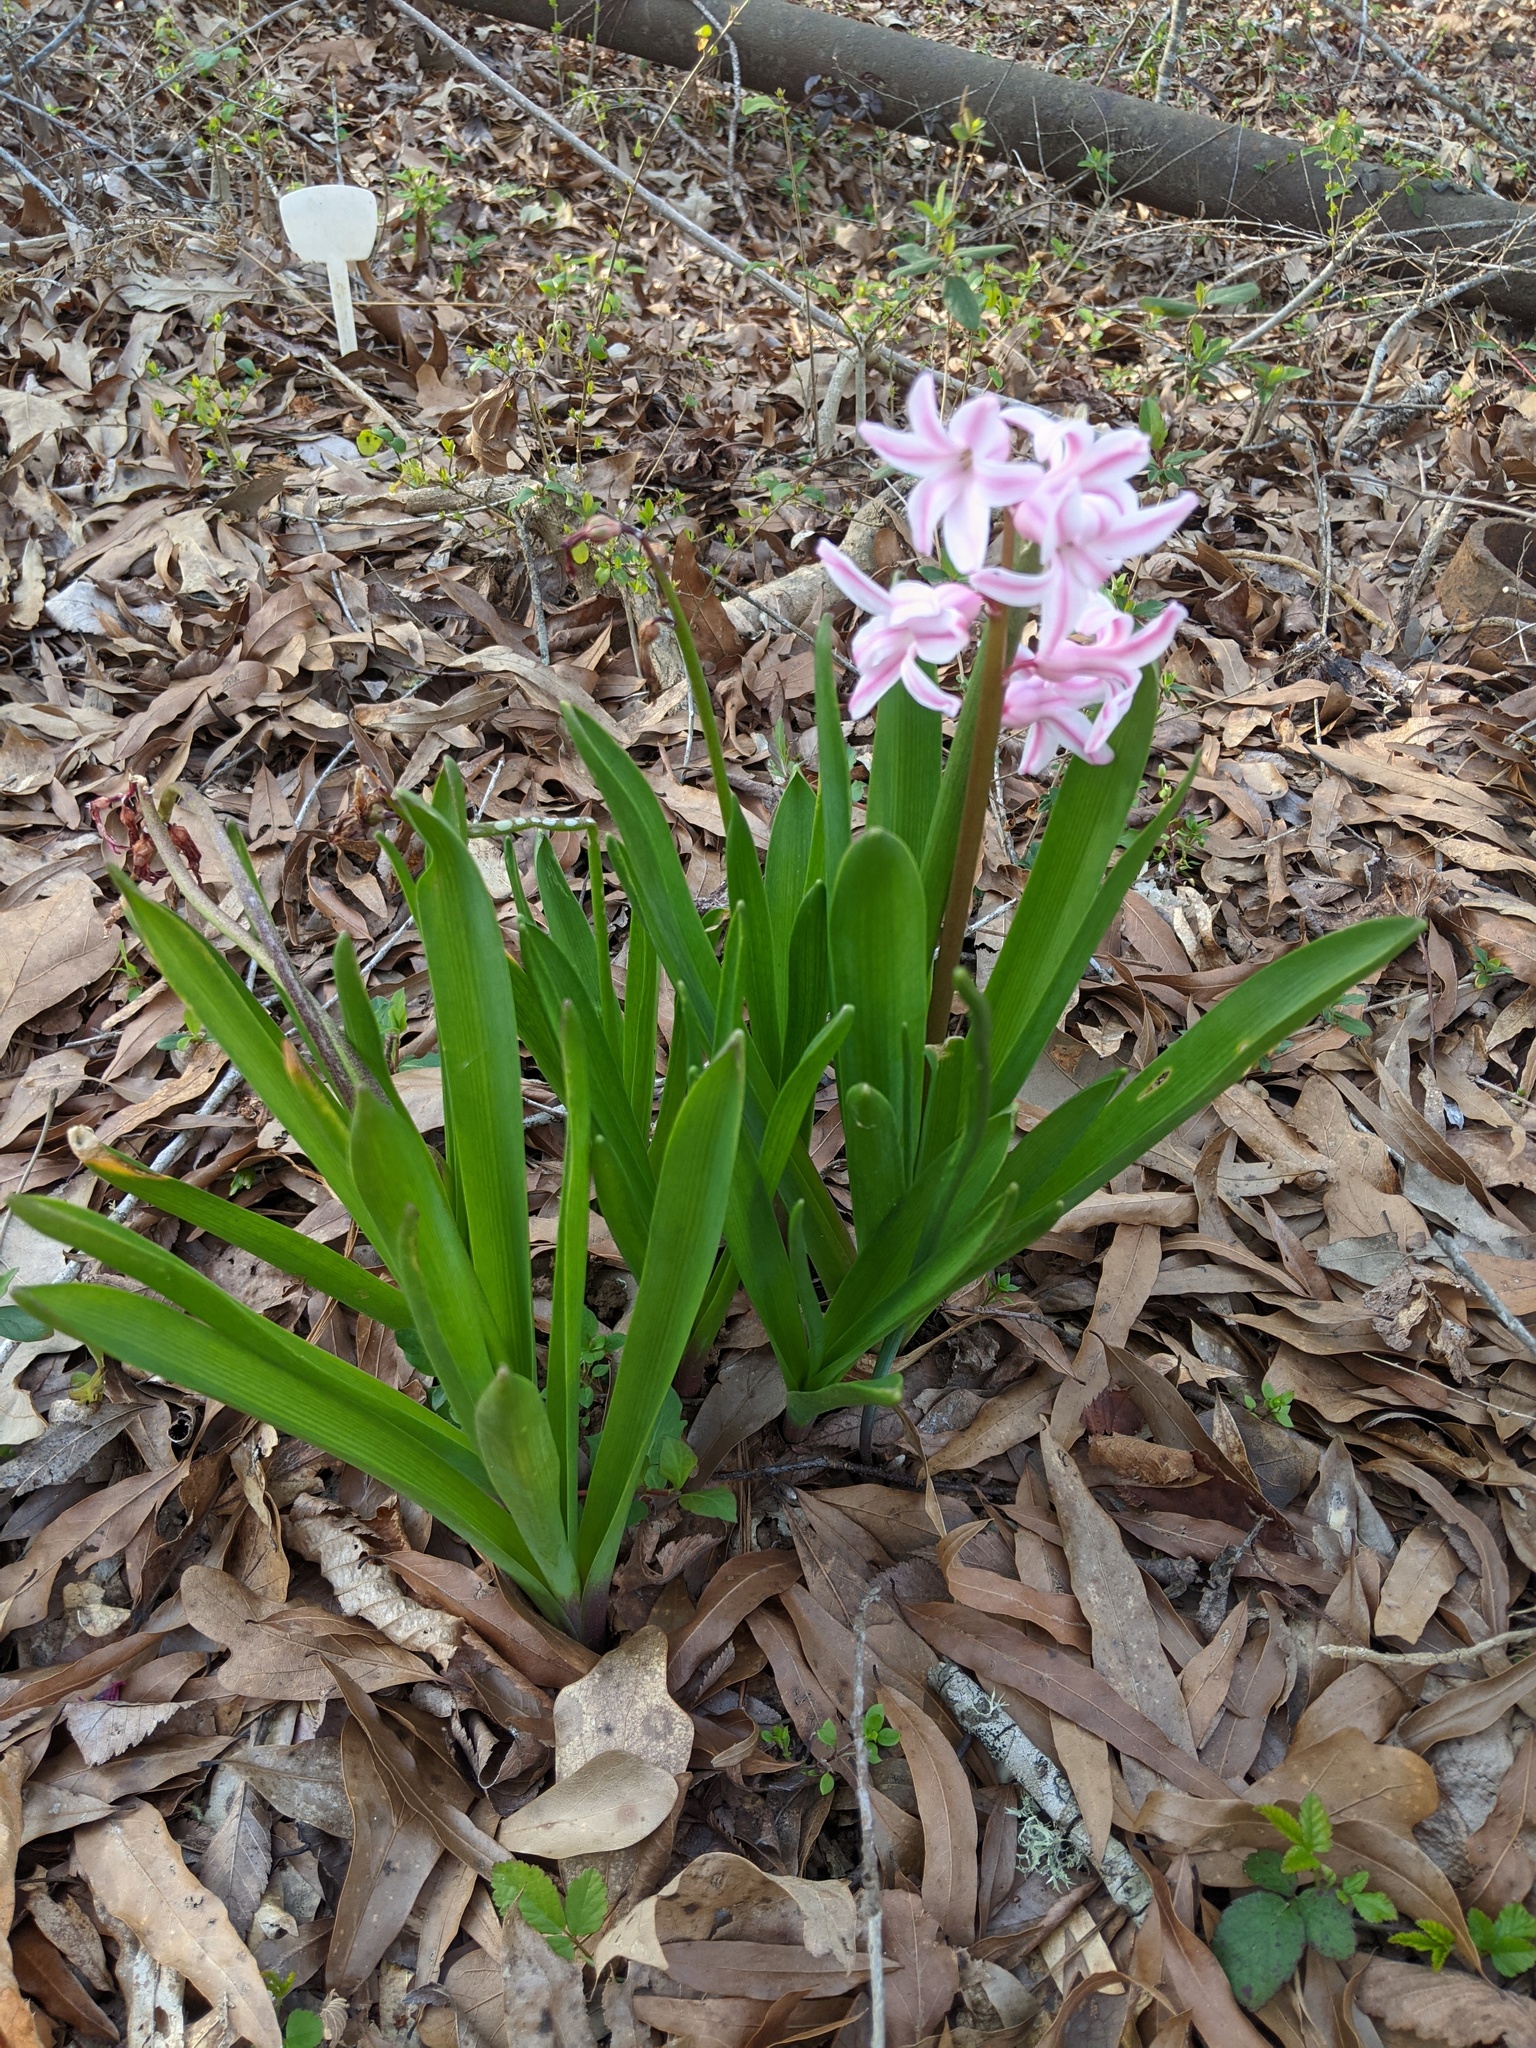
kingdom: Plantae
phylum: Tracheophyta
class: Liliopsida
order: Asparagales
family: Asparagaceae
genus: Hyacinthus
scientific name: Hyacinthus orientalis
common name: Hyacinth
